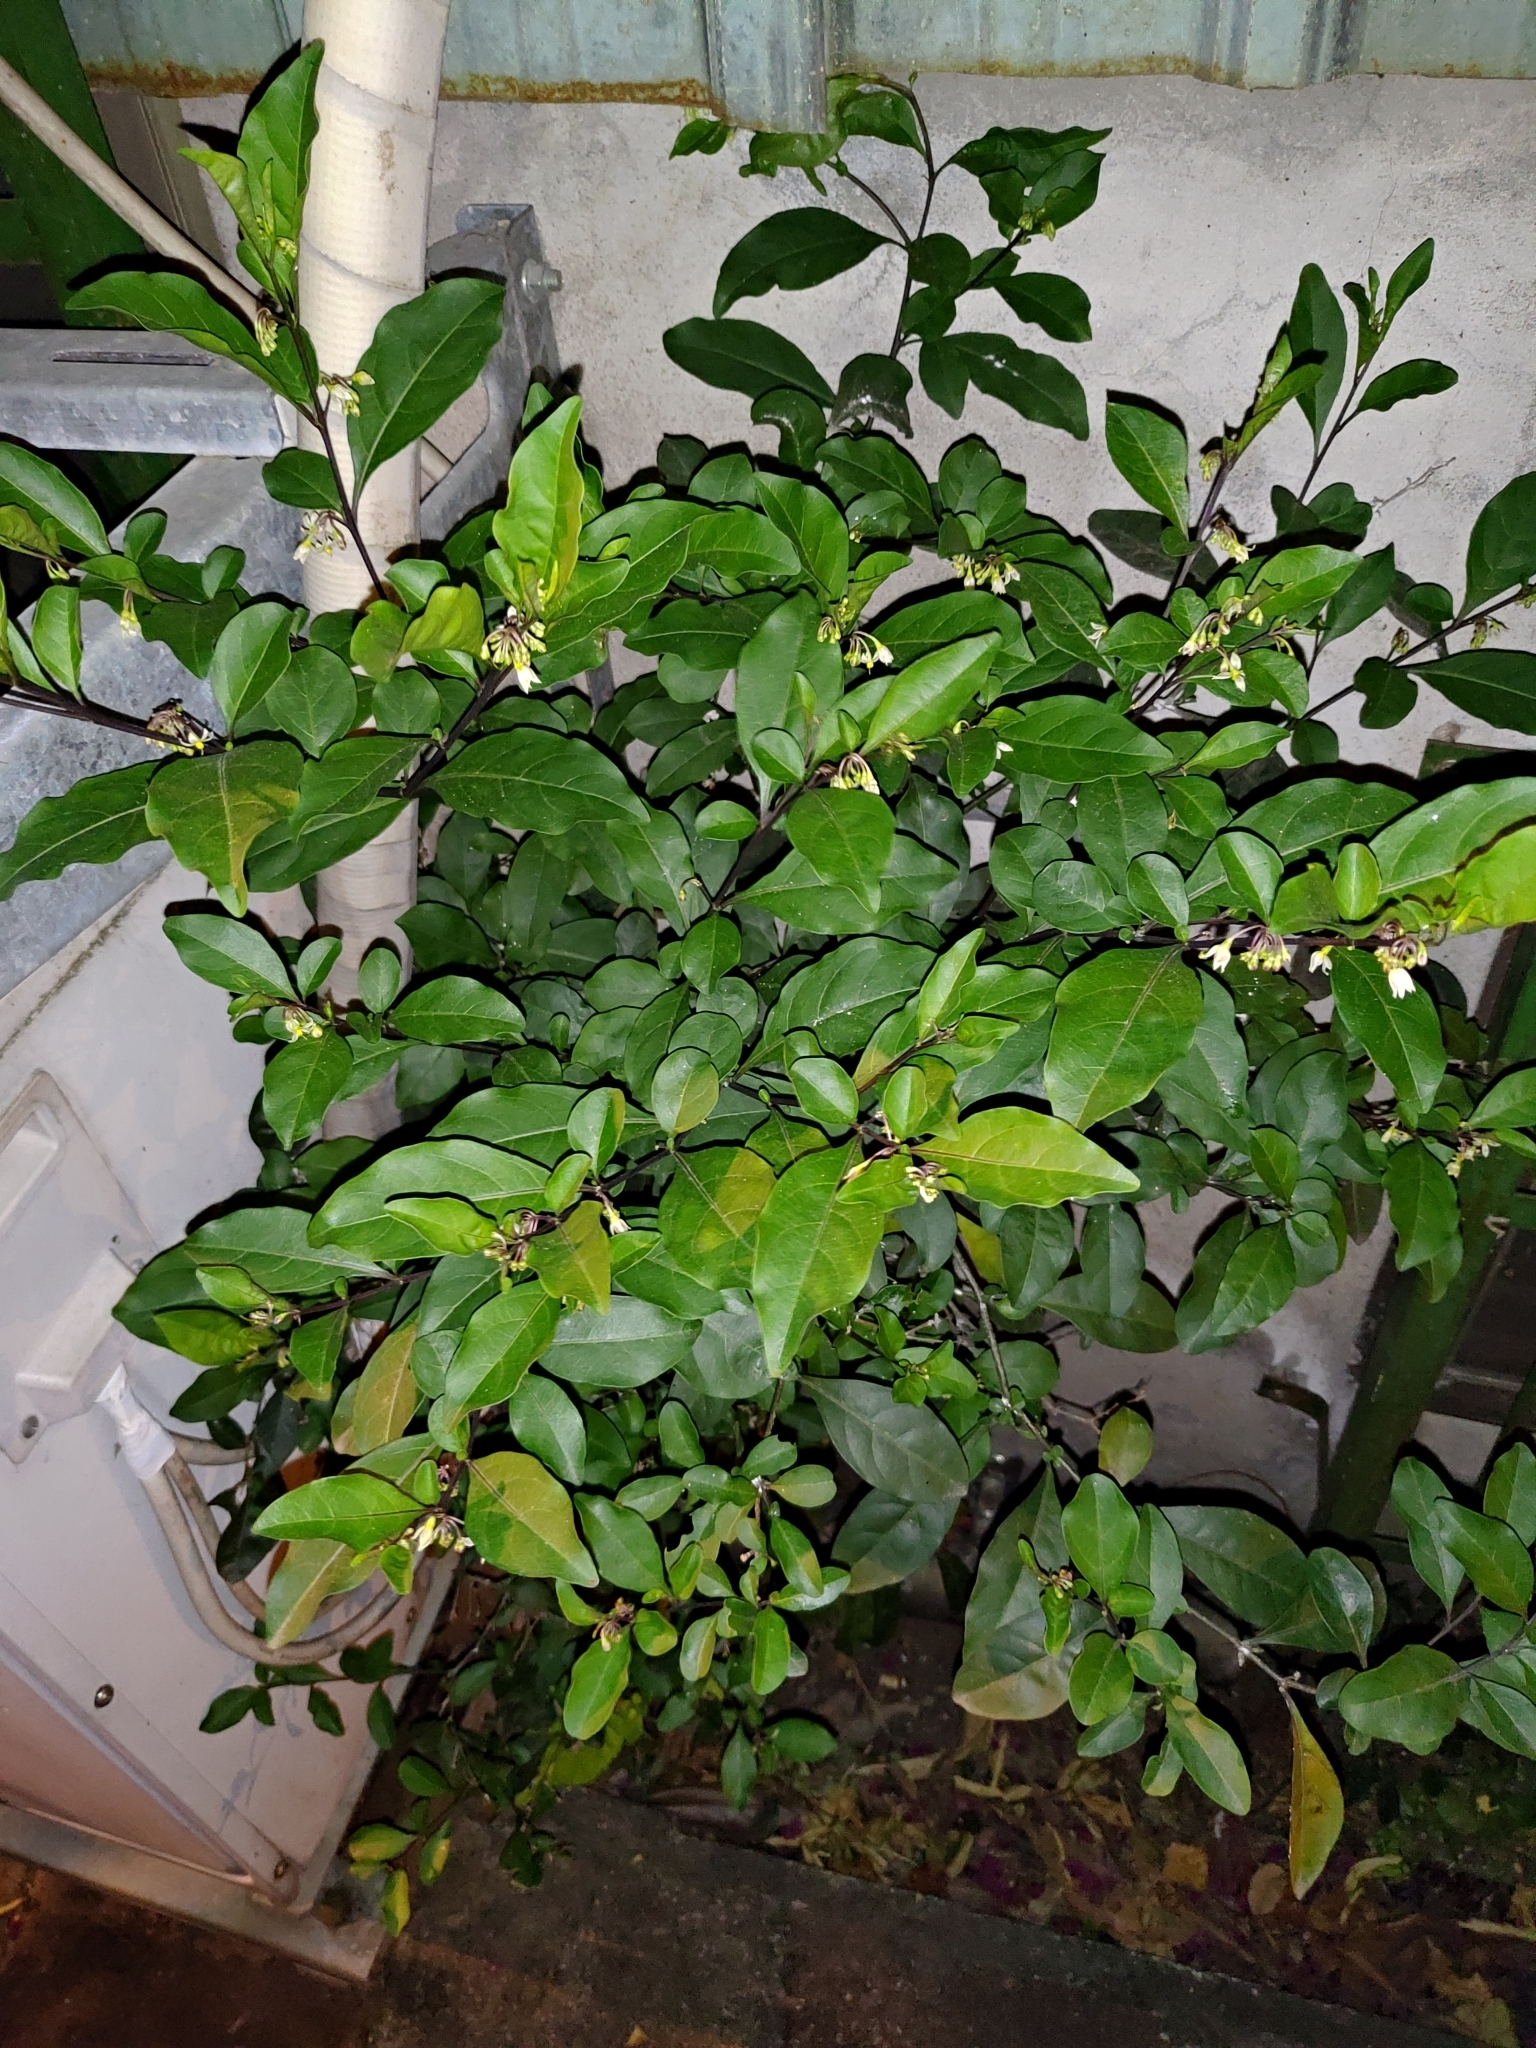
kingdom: Plantae
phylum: Tracheophyta
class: Magnoliopsida
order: Solanales
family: Solanaceae
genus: Solanum
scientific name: Solanum diphyllum
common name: Twoleaf nightshade
